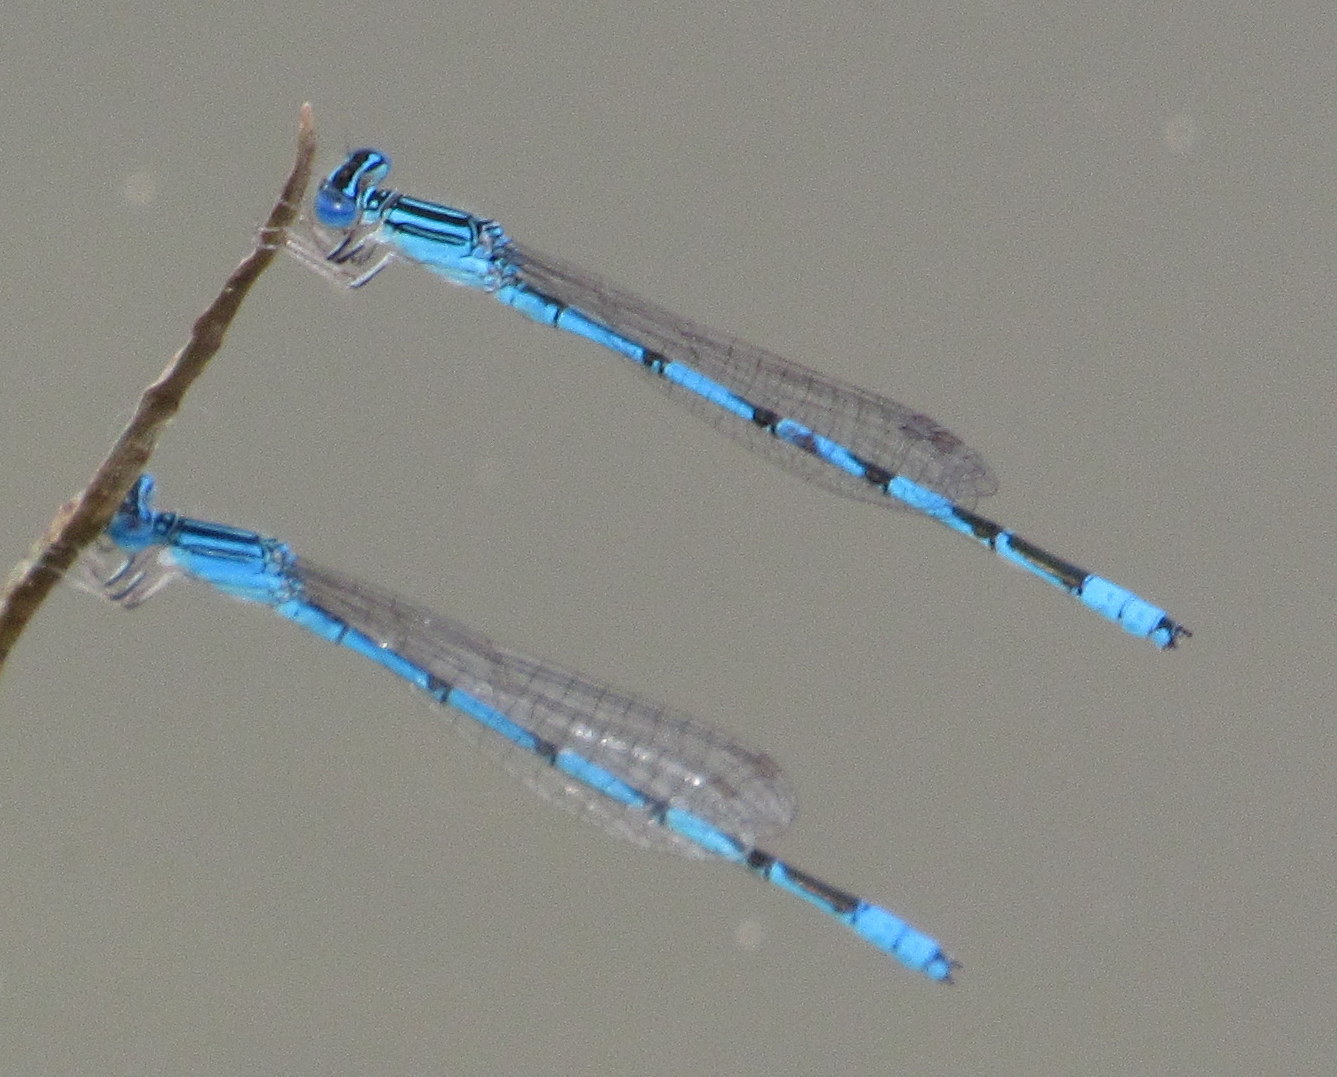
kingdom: Animalia
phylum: Arthropoda
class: Insecta
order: Odonata
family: Coenagrionidae
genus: Enallagma
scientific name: Enallagma basidens
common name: Double-striped bluet
